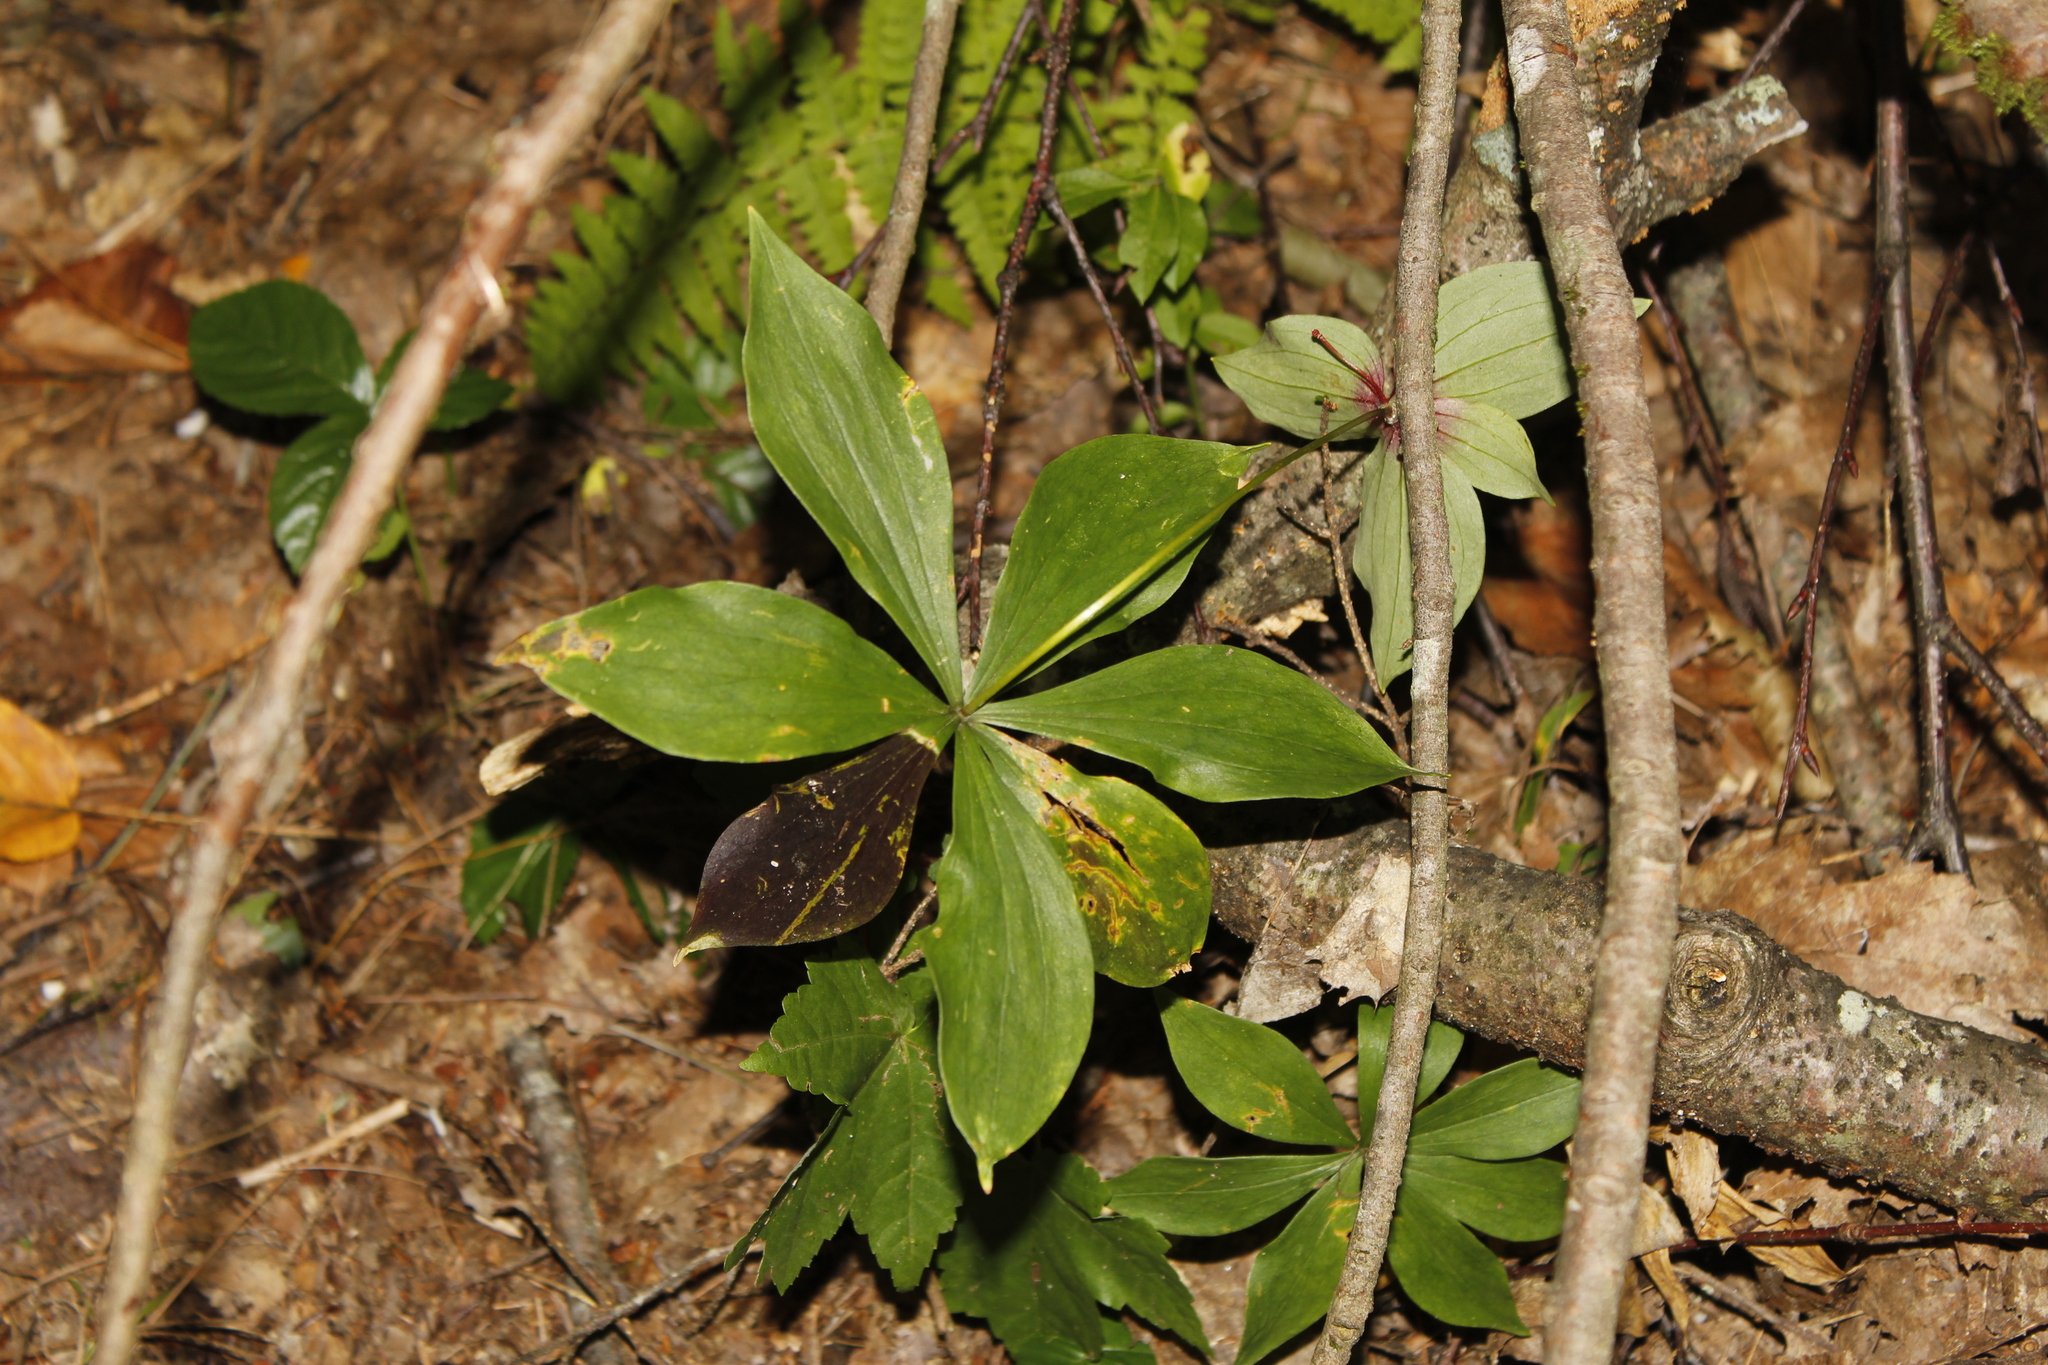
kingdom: Plantae
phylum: Tracheophyta
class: Liliopsida
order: Liliales
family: Liliaceae
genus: Medeola
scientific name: Medeola virginiana
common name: Indian cucumber-root
